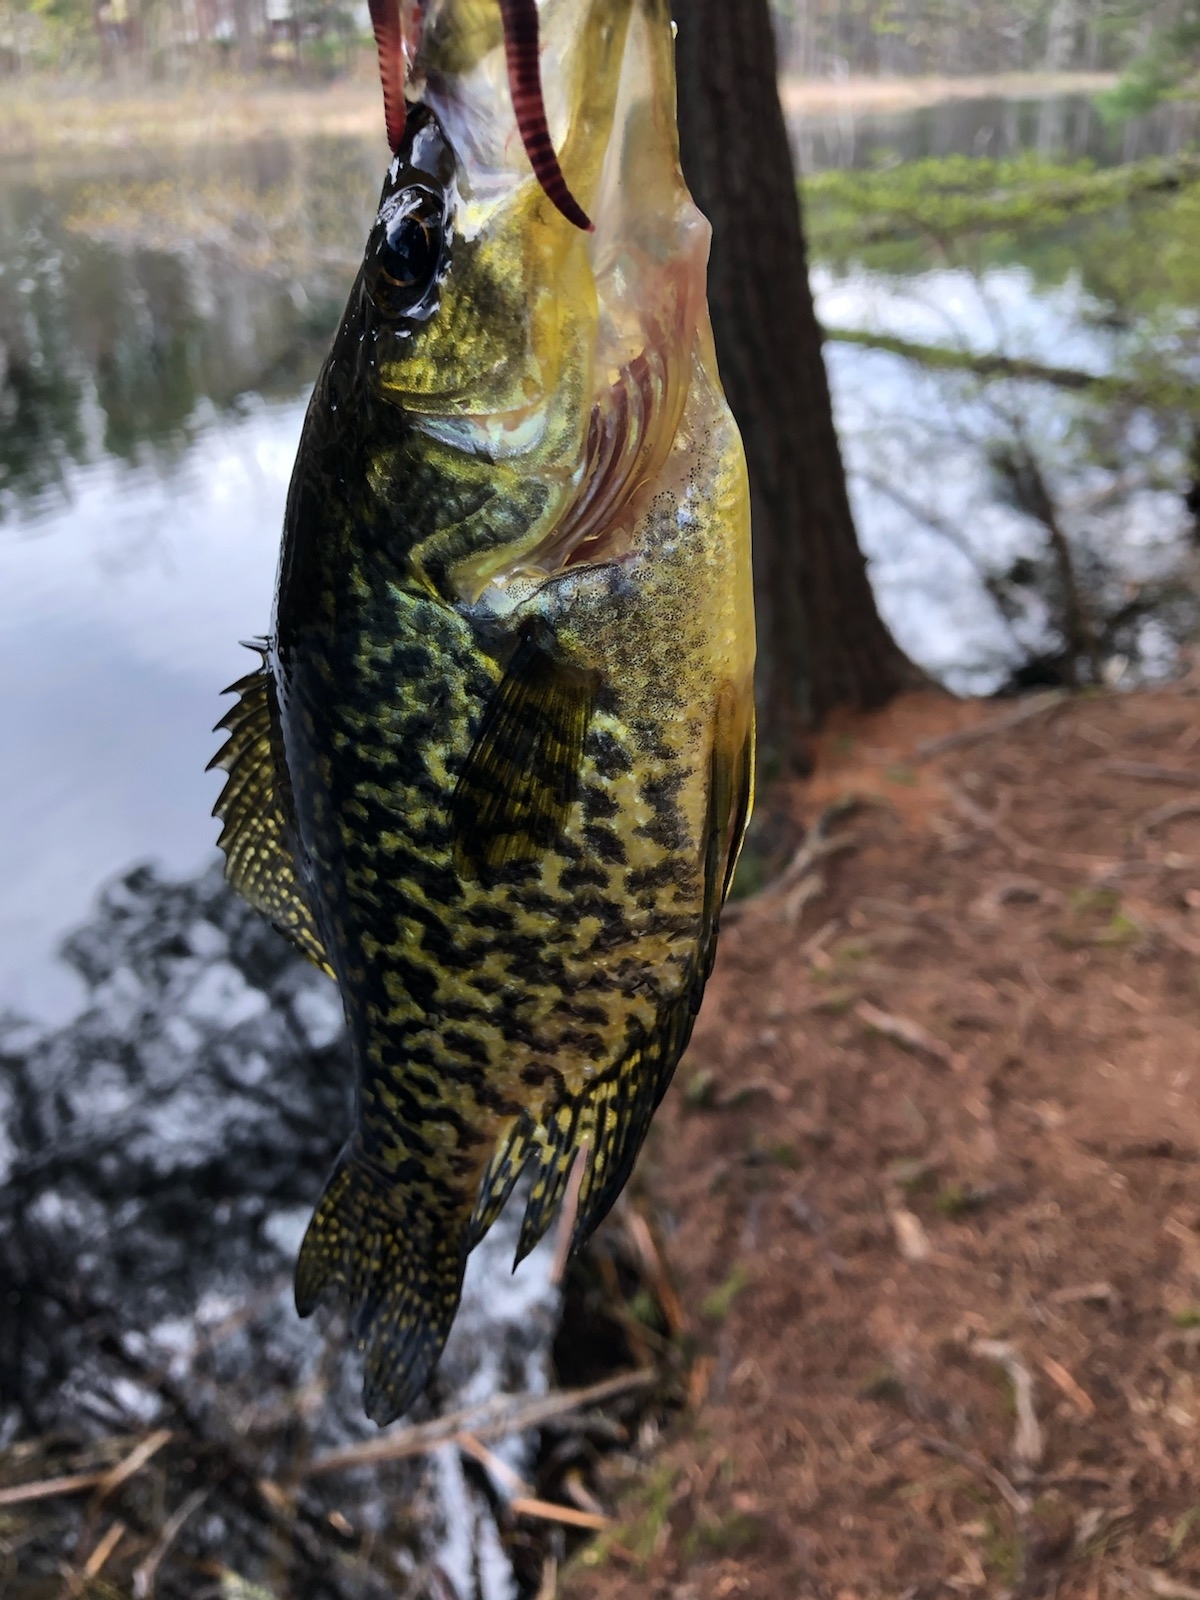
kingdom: Animalia
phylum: Chordata
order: Perciformes
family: Centrarchidae
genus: Pomoxis
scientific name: Pomoxis nigromaculatus
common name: Black crappie
